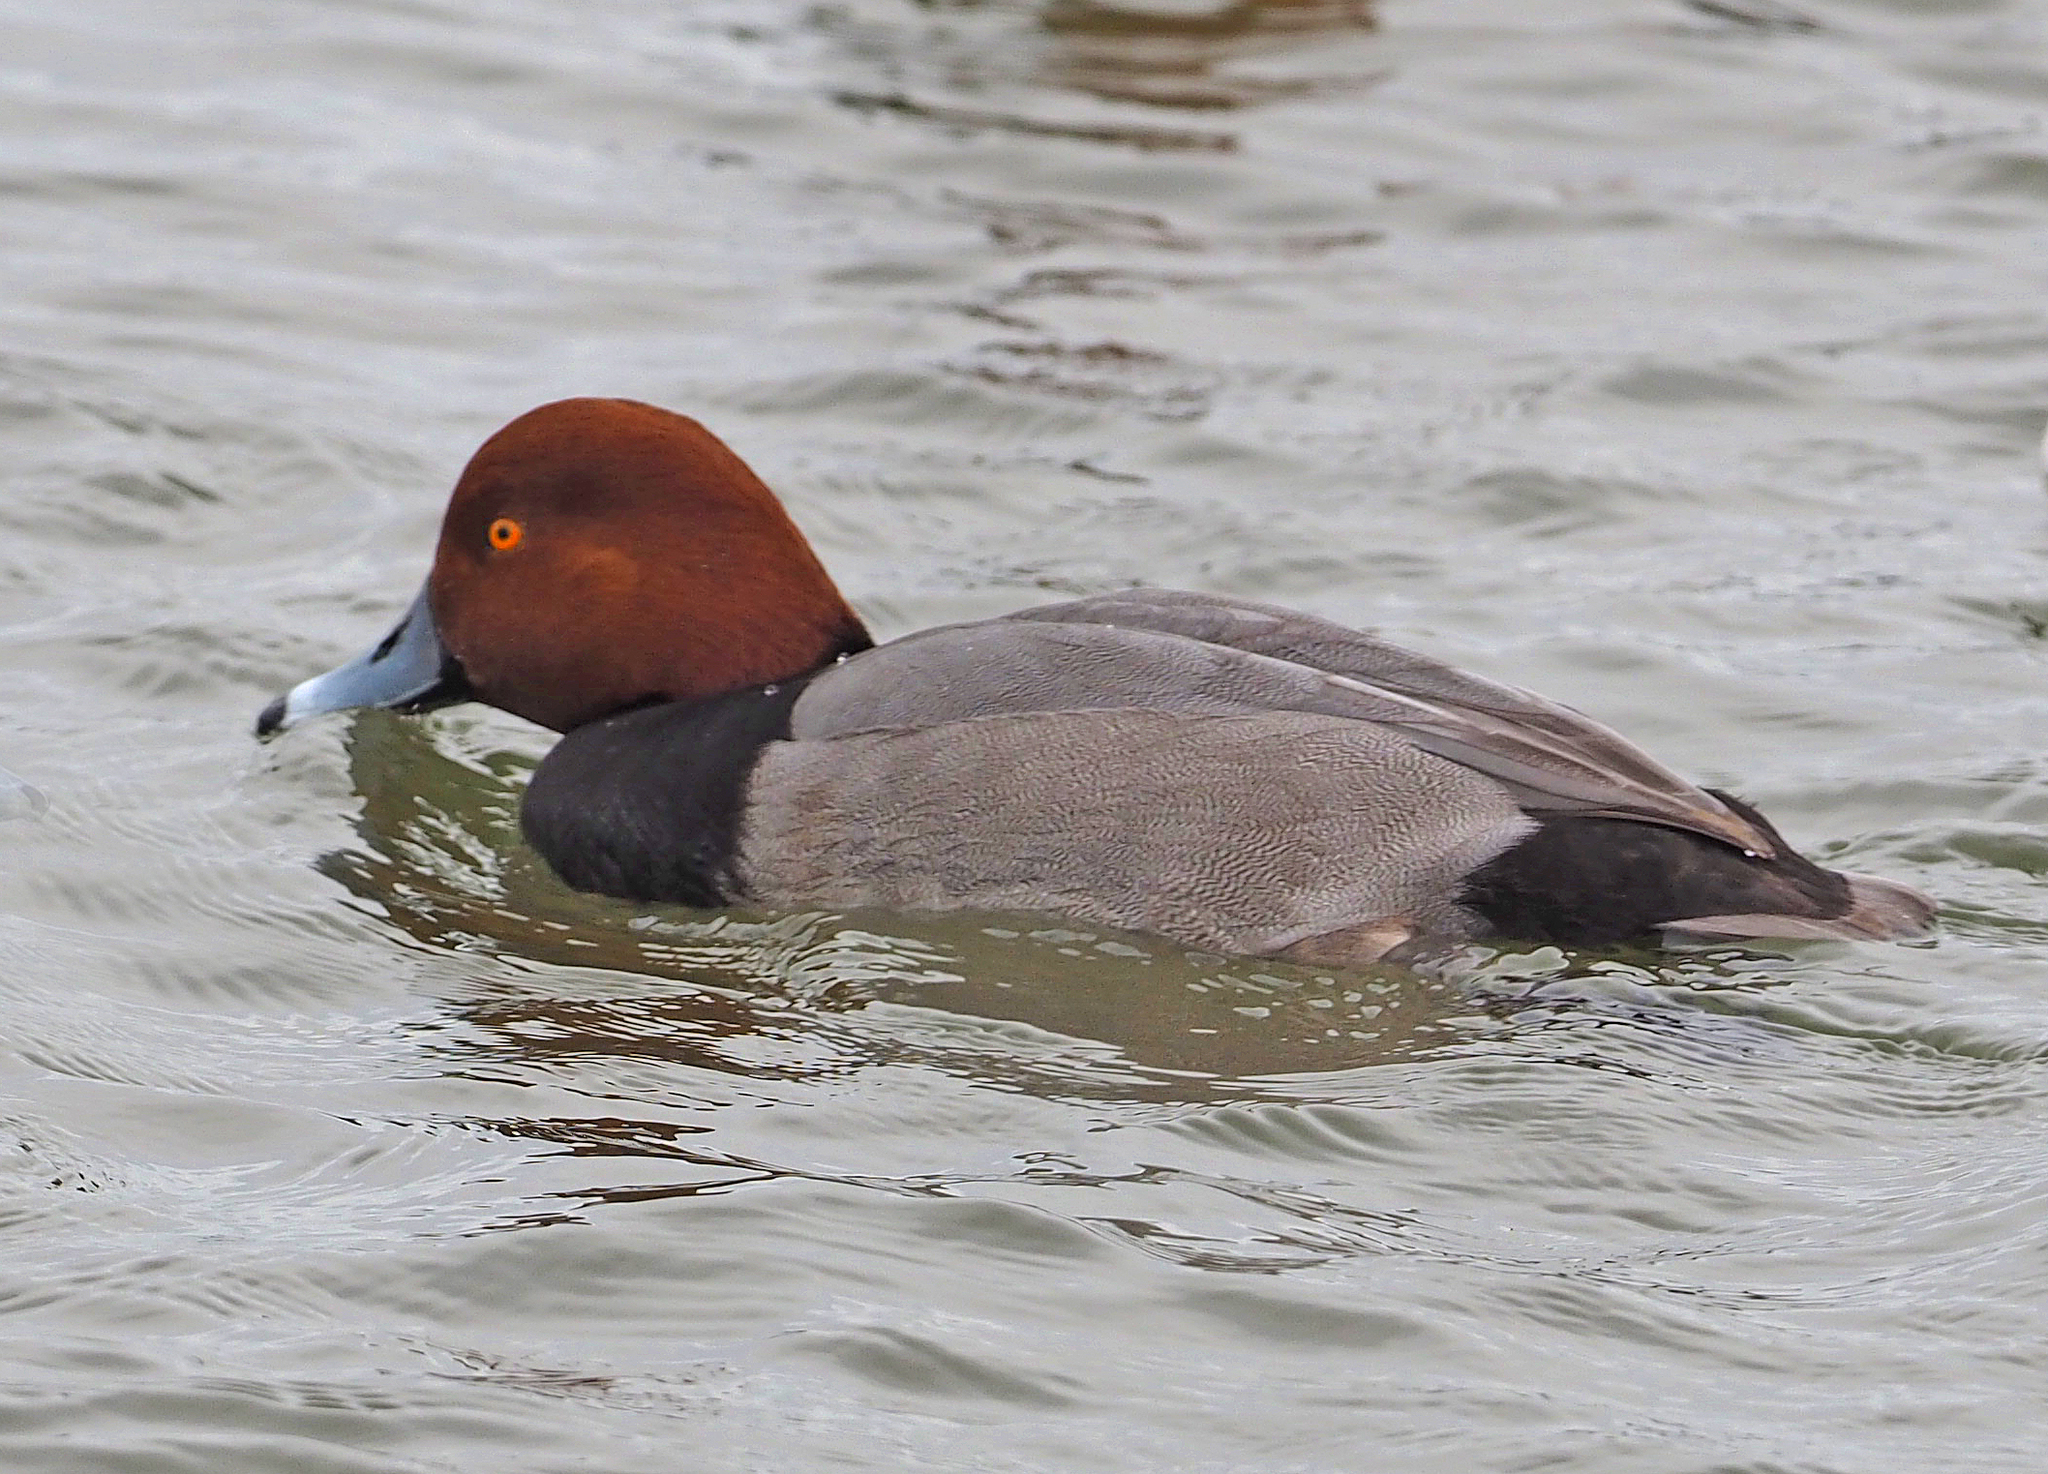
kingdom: Animalia
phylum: Chordata
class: Aves
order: Anseriformes
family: Anatidae
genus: Aythya
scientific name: Aythya americana
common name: Redhead
